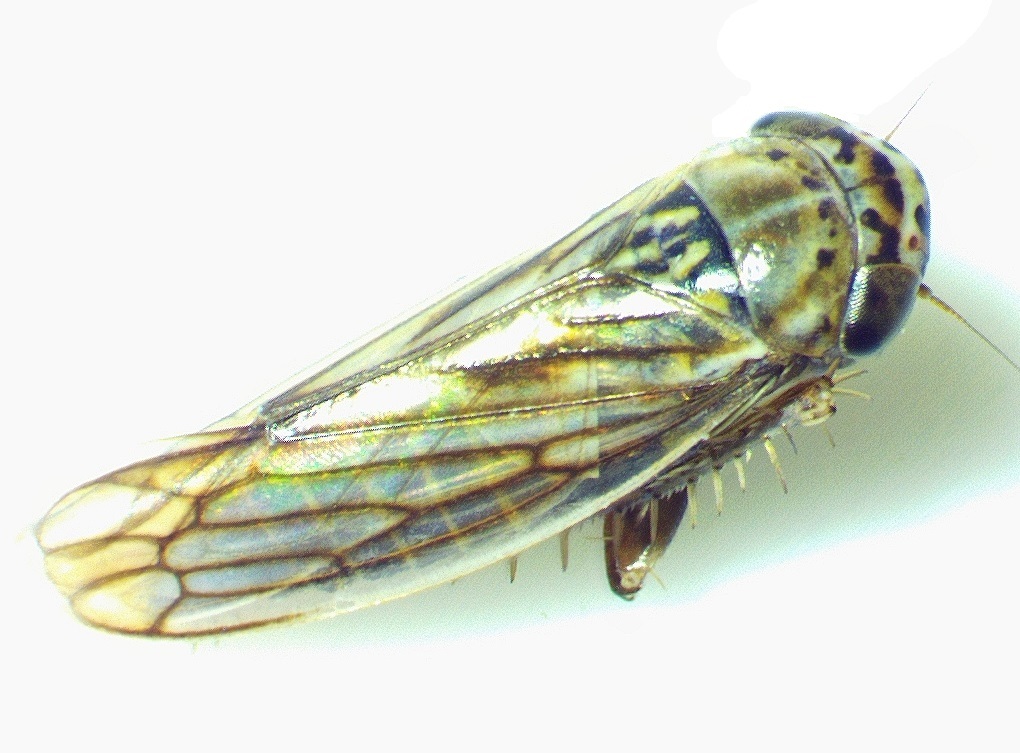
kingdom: Animalia
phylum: Arthropoda
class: Insecta
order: Hemiptera
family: Cicadellidae
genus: Exitianus
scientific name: Exitianus exitiosus
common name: Gray lawn leafhopper
